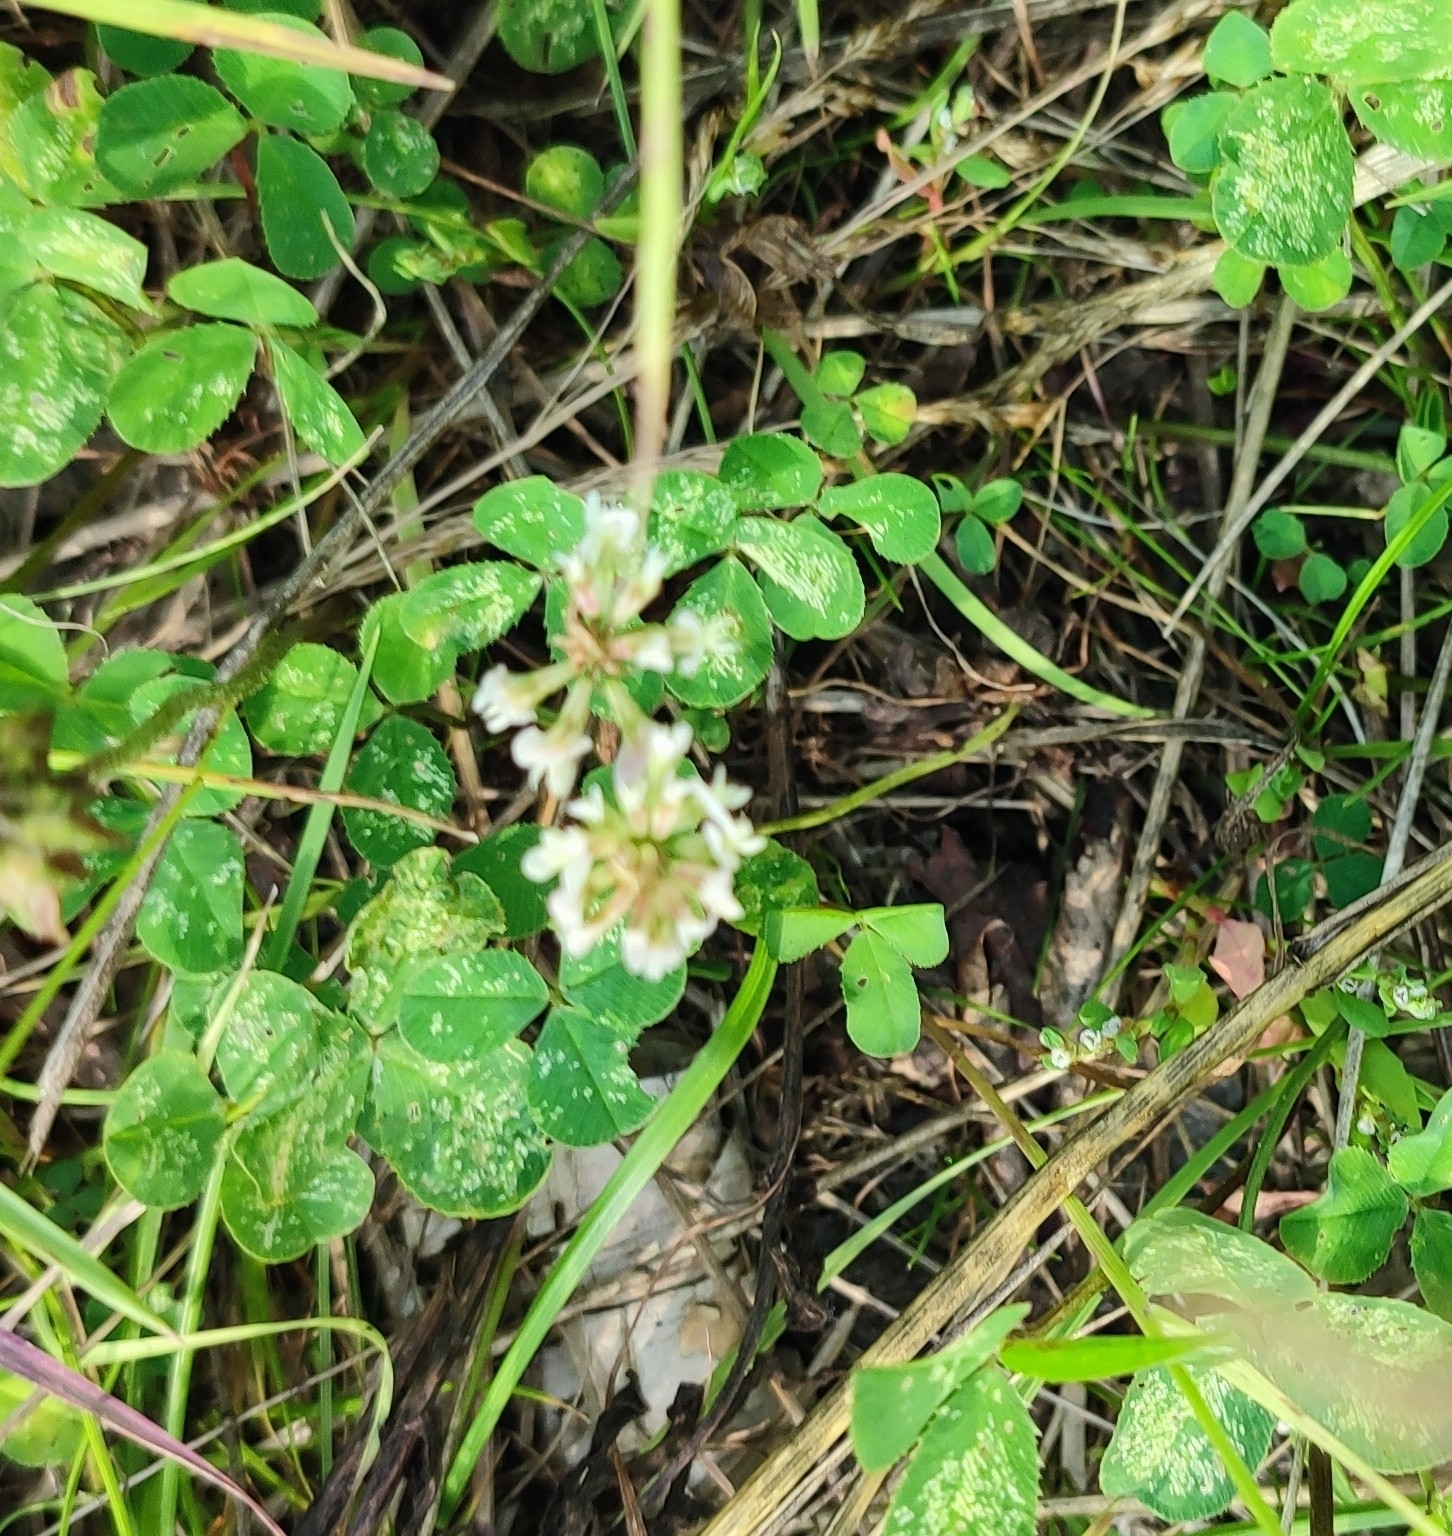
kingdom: Plantae
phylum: Tracheophyta
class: Magnoliopsida
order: Fabales
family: Fabaceae
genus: Trifolium
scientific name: Trifolium repens
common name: White clover
